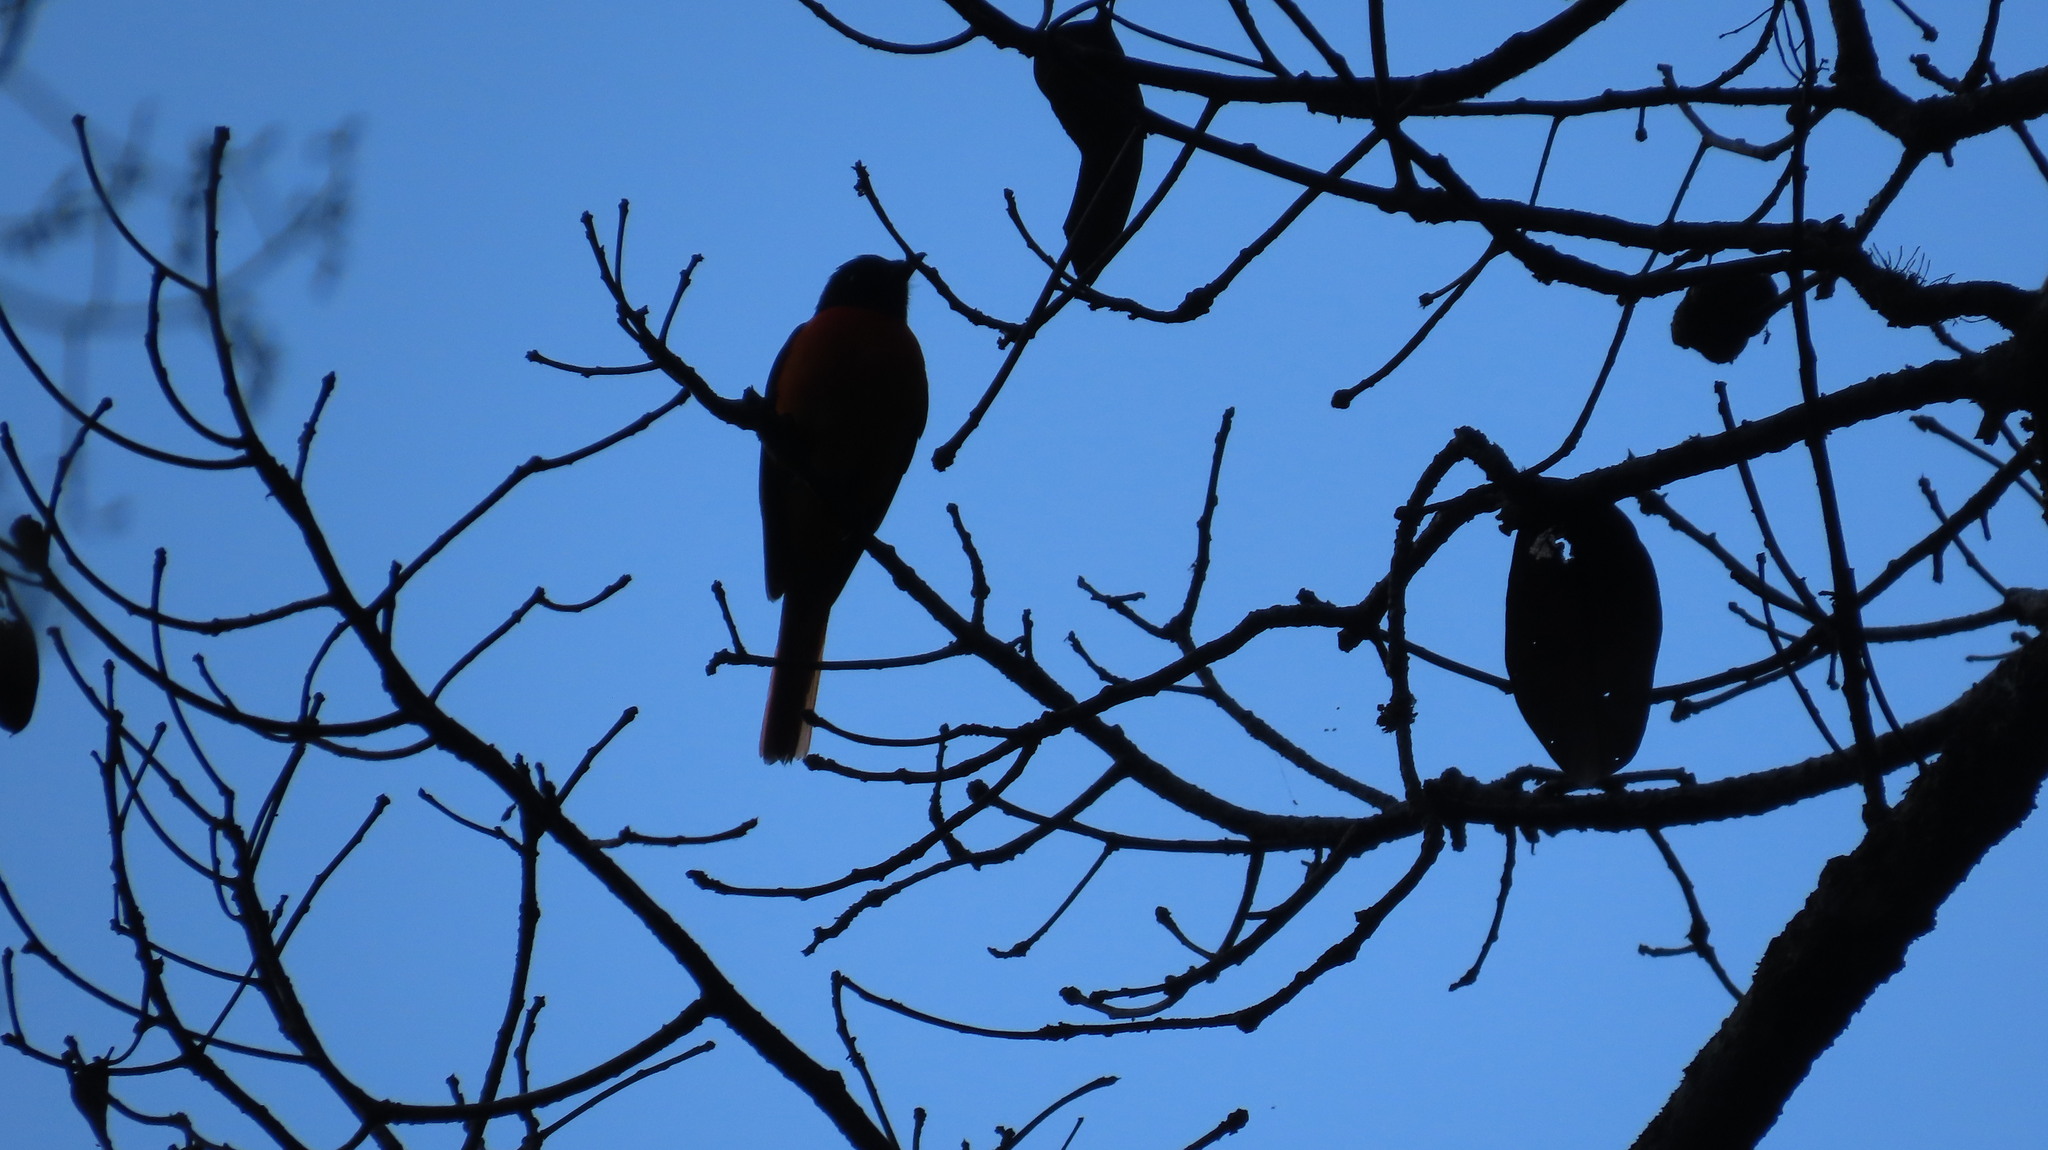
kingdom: Animalia
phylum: Chordata
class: Aves
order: Passeriformes
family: Campephagidae
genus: Pericrocotus
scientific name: Pericrocotus flammeus
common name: Orange minivet
